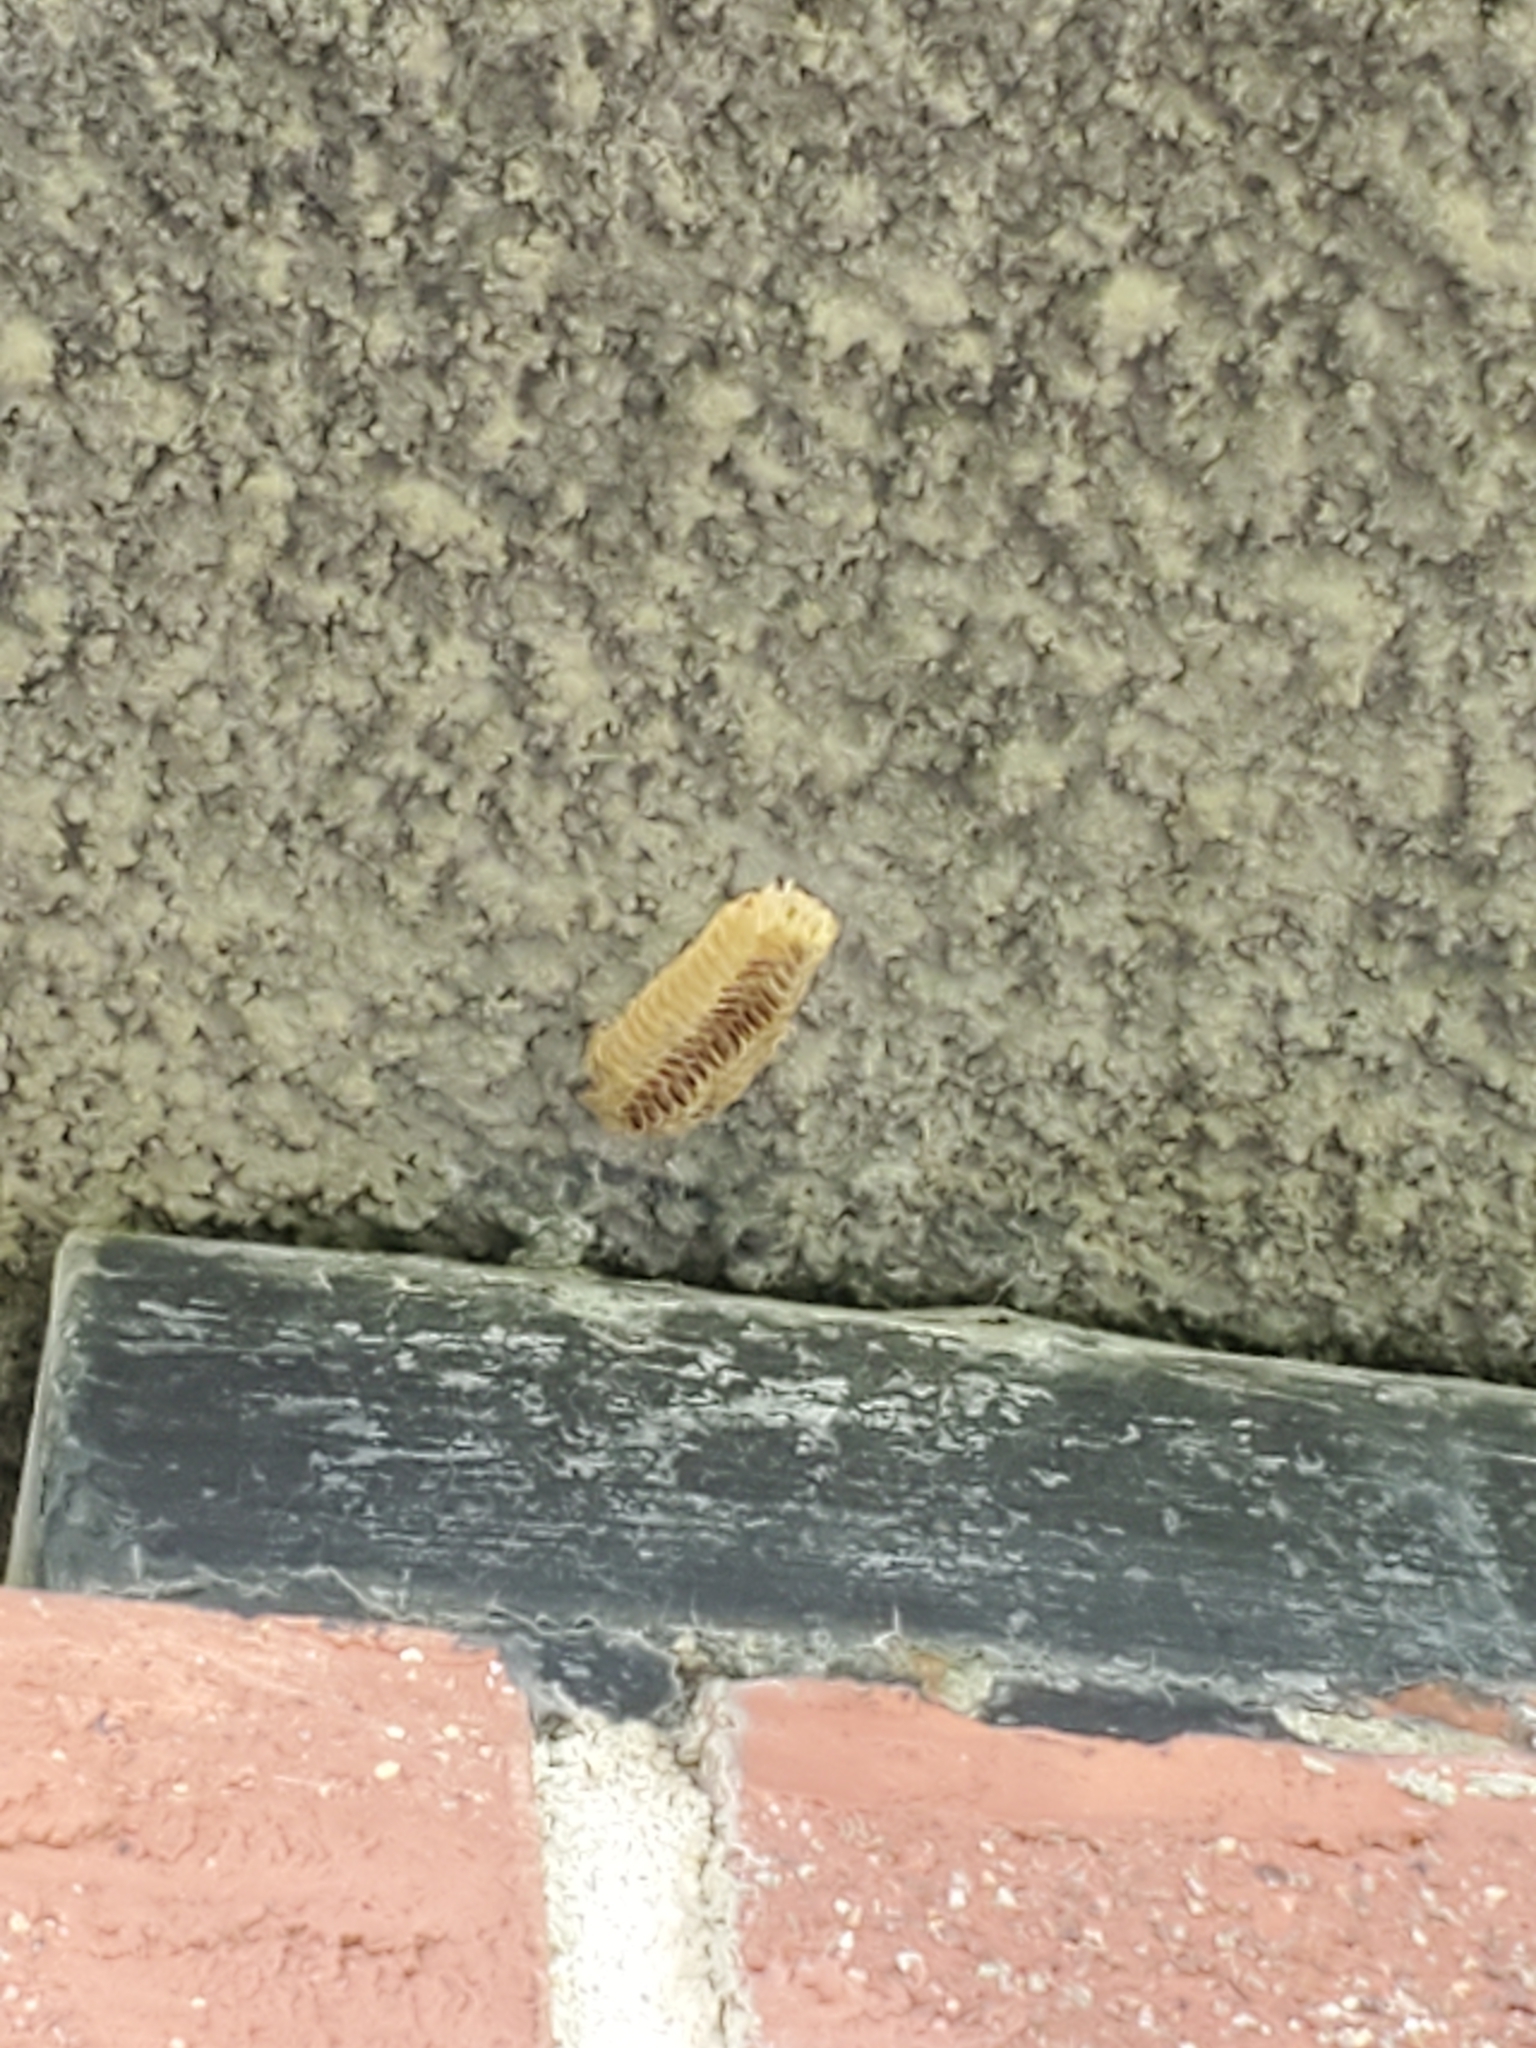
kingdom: Animalia
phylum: Arthropoda
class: Insecta
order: Mantodea
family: Mantidae
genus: Stagmomantis
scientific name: Stagmomantis carolina
